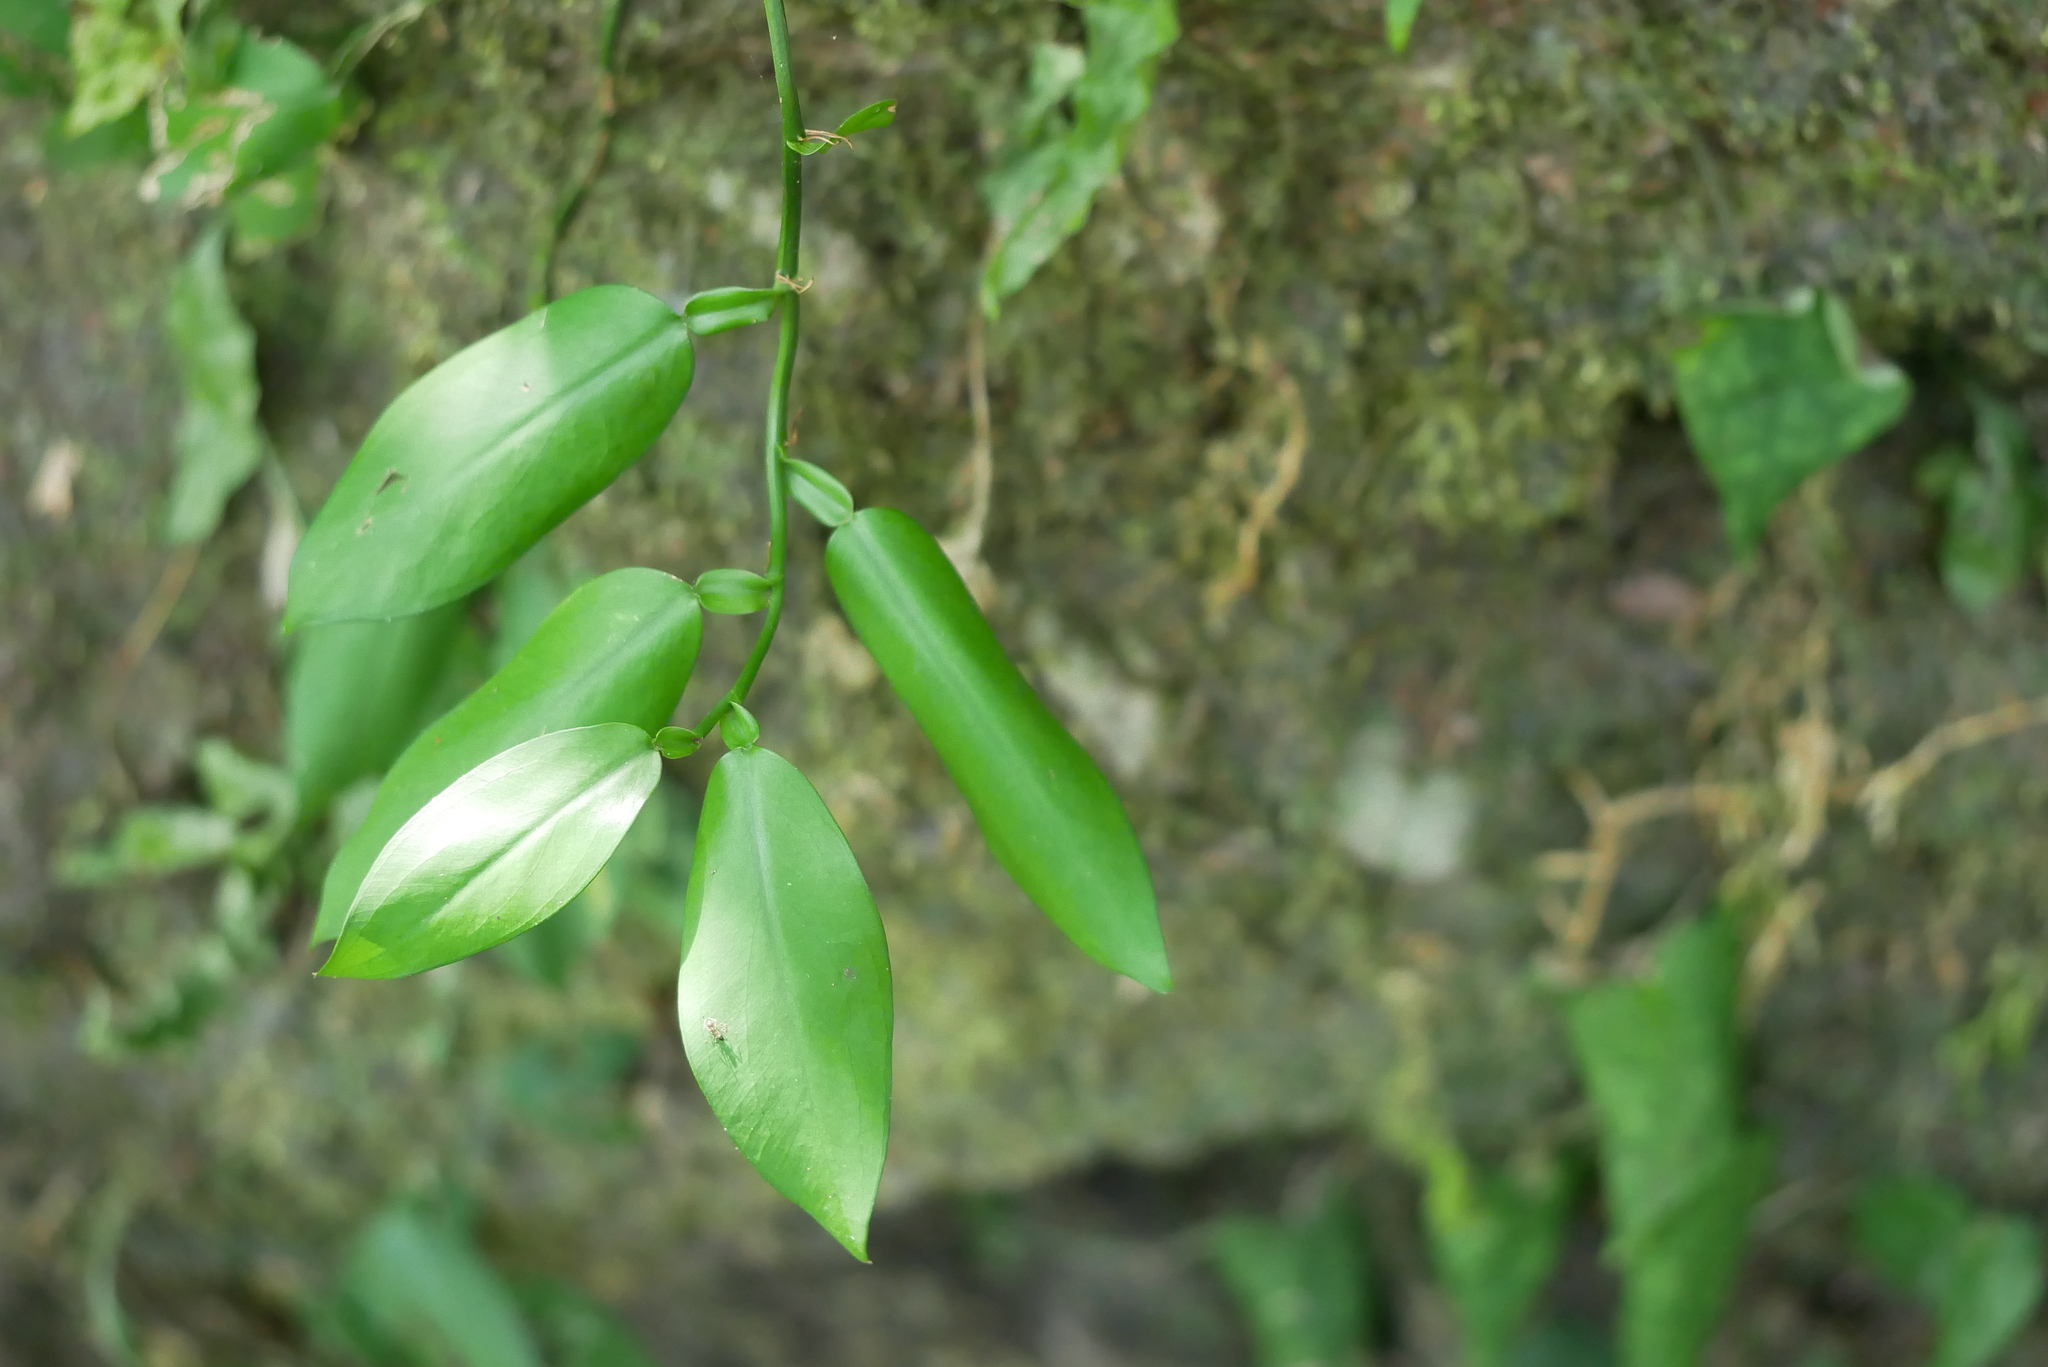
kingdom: Plantae
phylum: Tracheophyta
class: Liliopsida
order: Alismatales
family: Araceae
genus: Pothos
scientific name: Pothos chinensis
